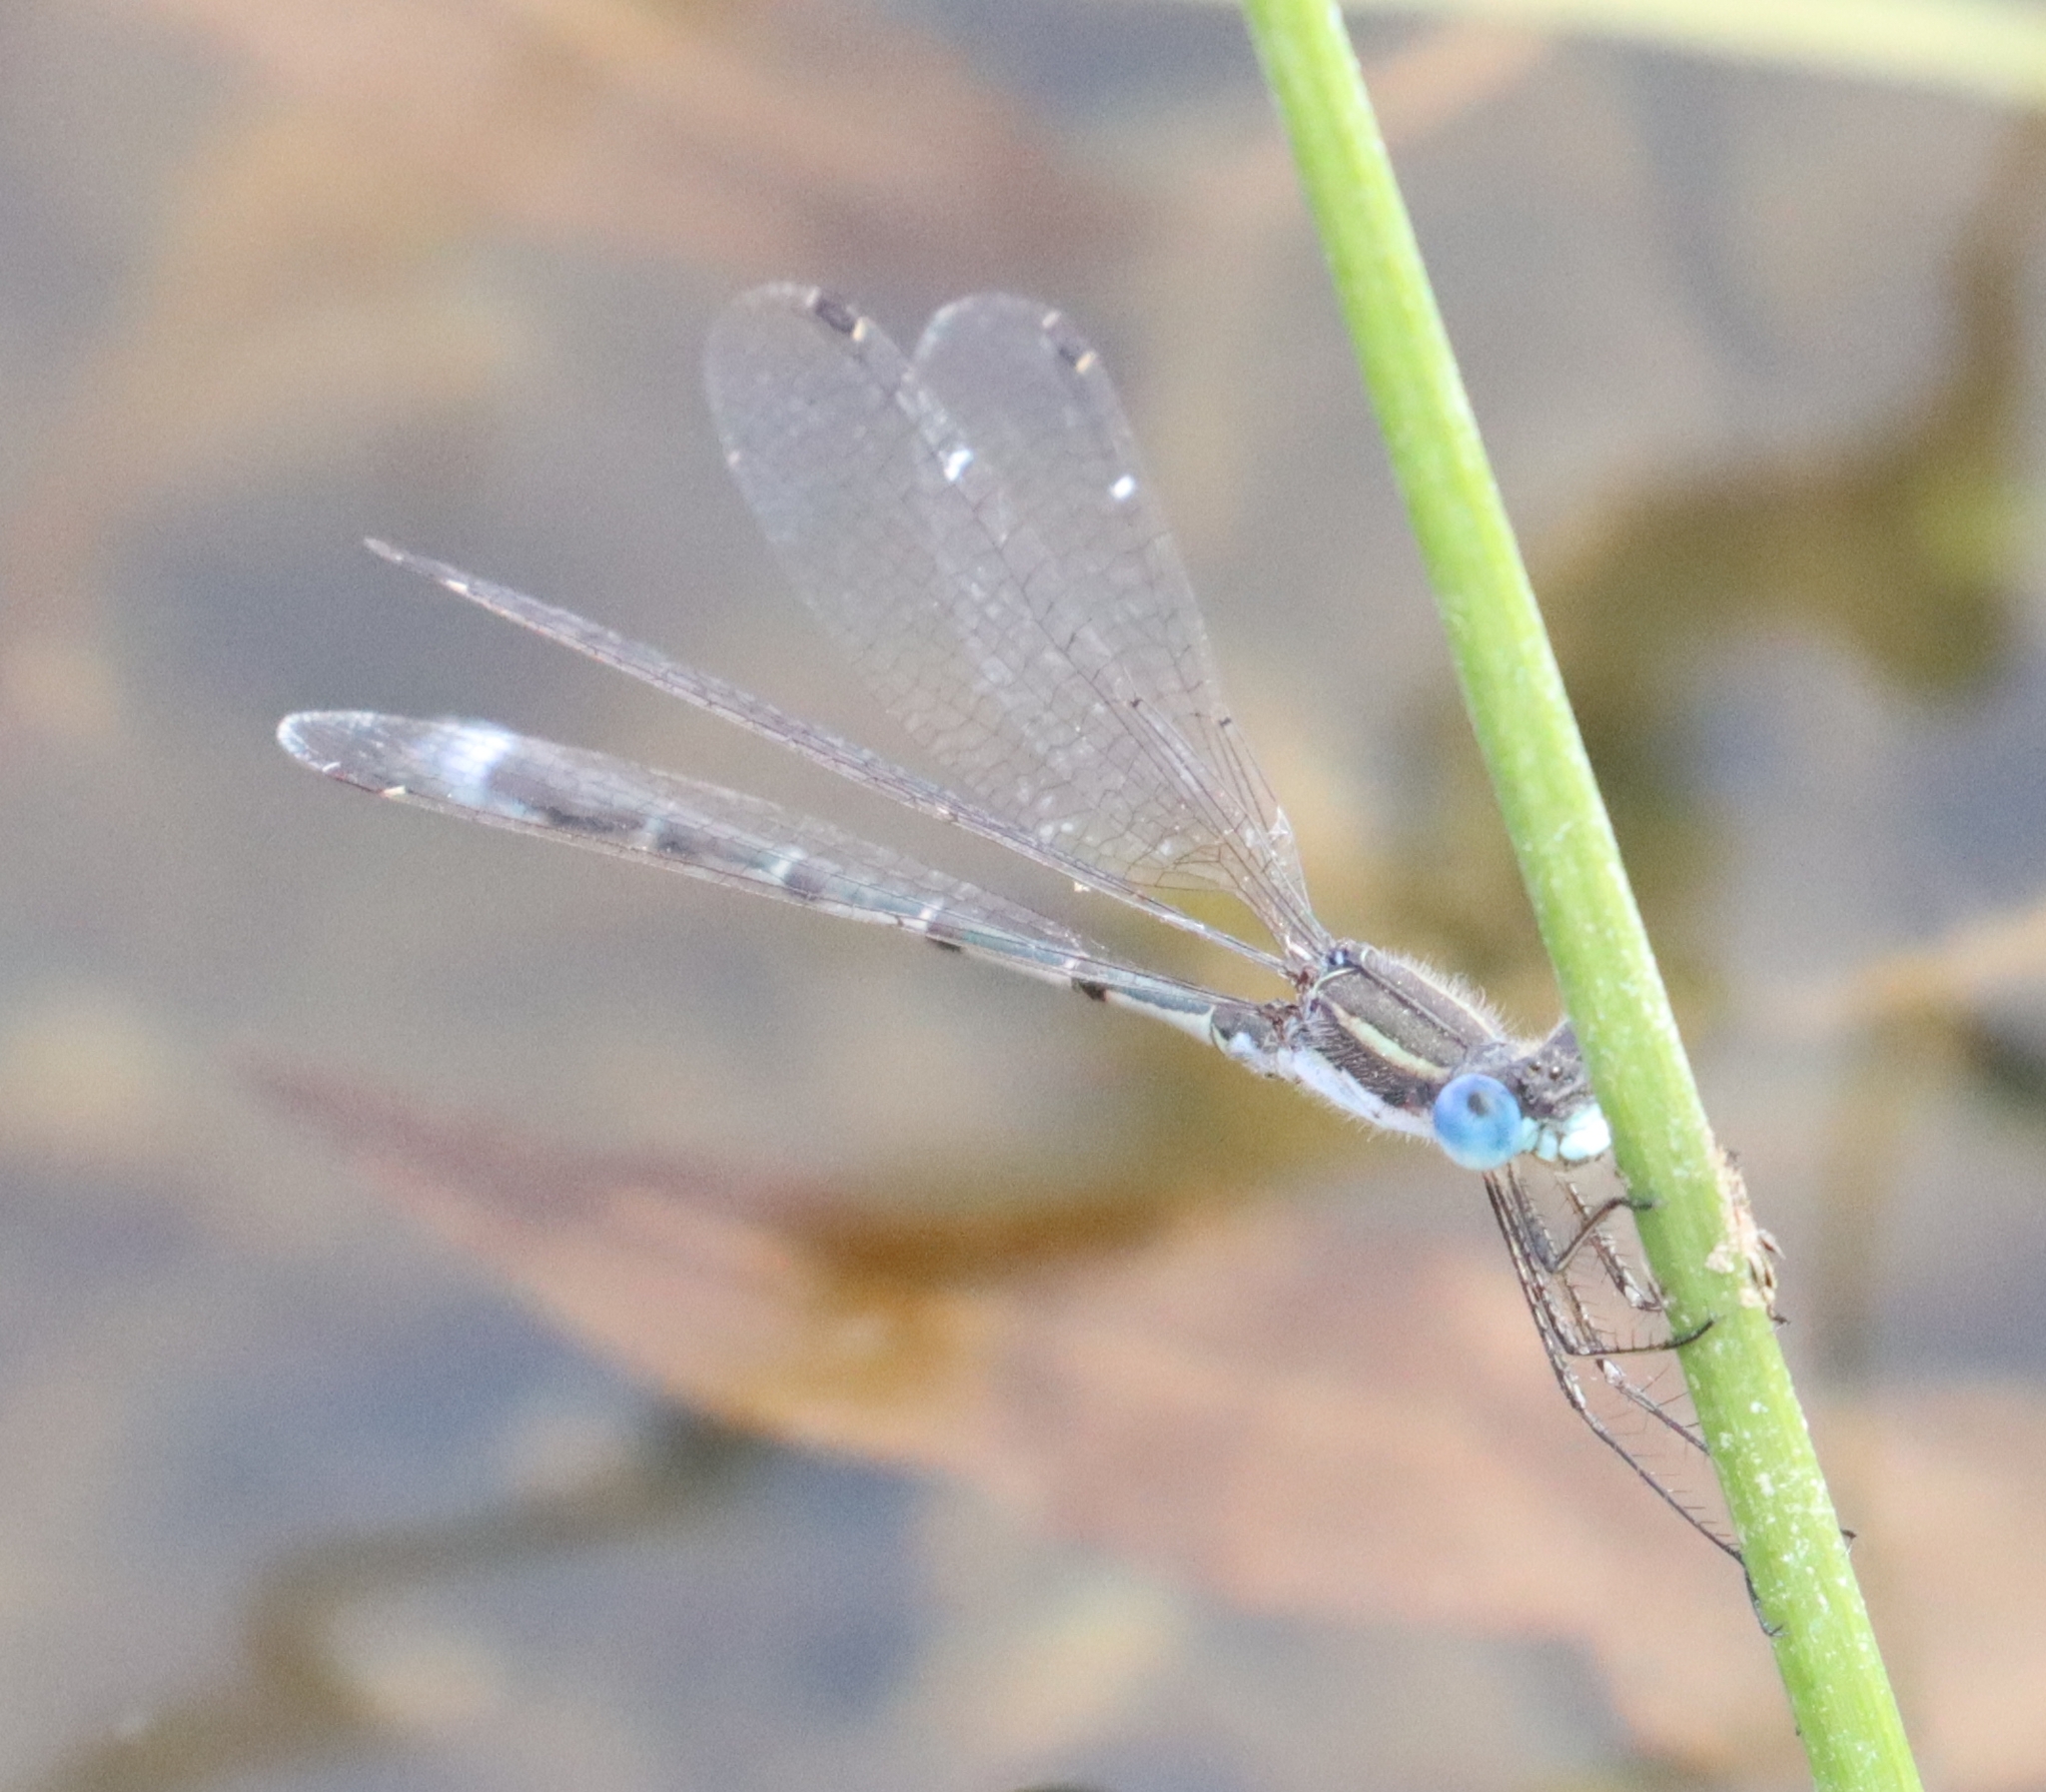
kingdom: Animalia
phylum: Arthropoda
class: Insecta
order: Odonata
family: Lestidae
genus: Lestes
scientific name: Lestes australis
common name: Southern spreadwing
